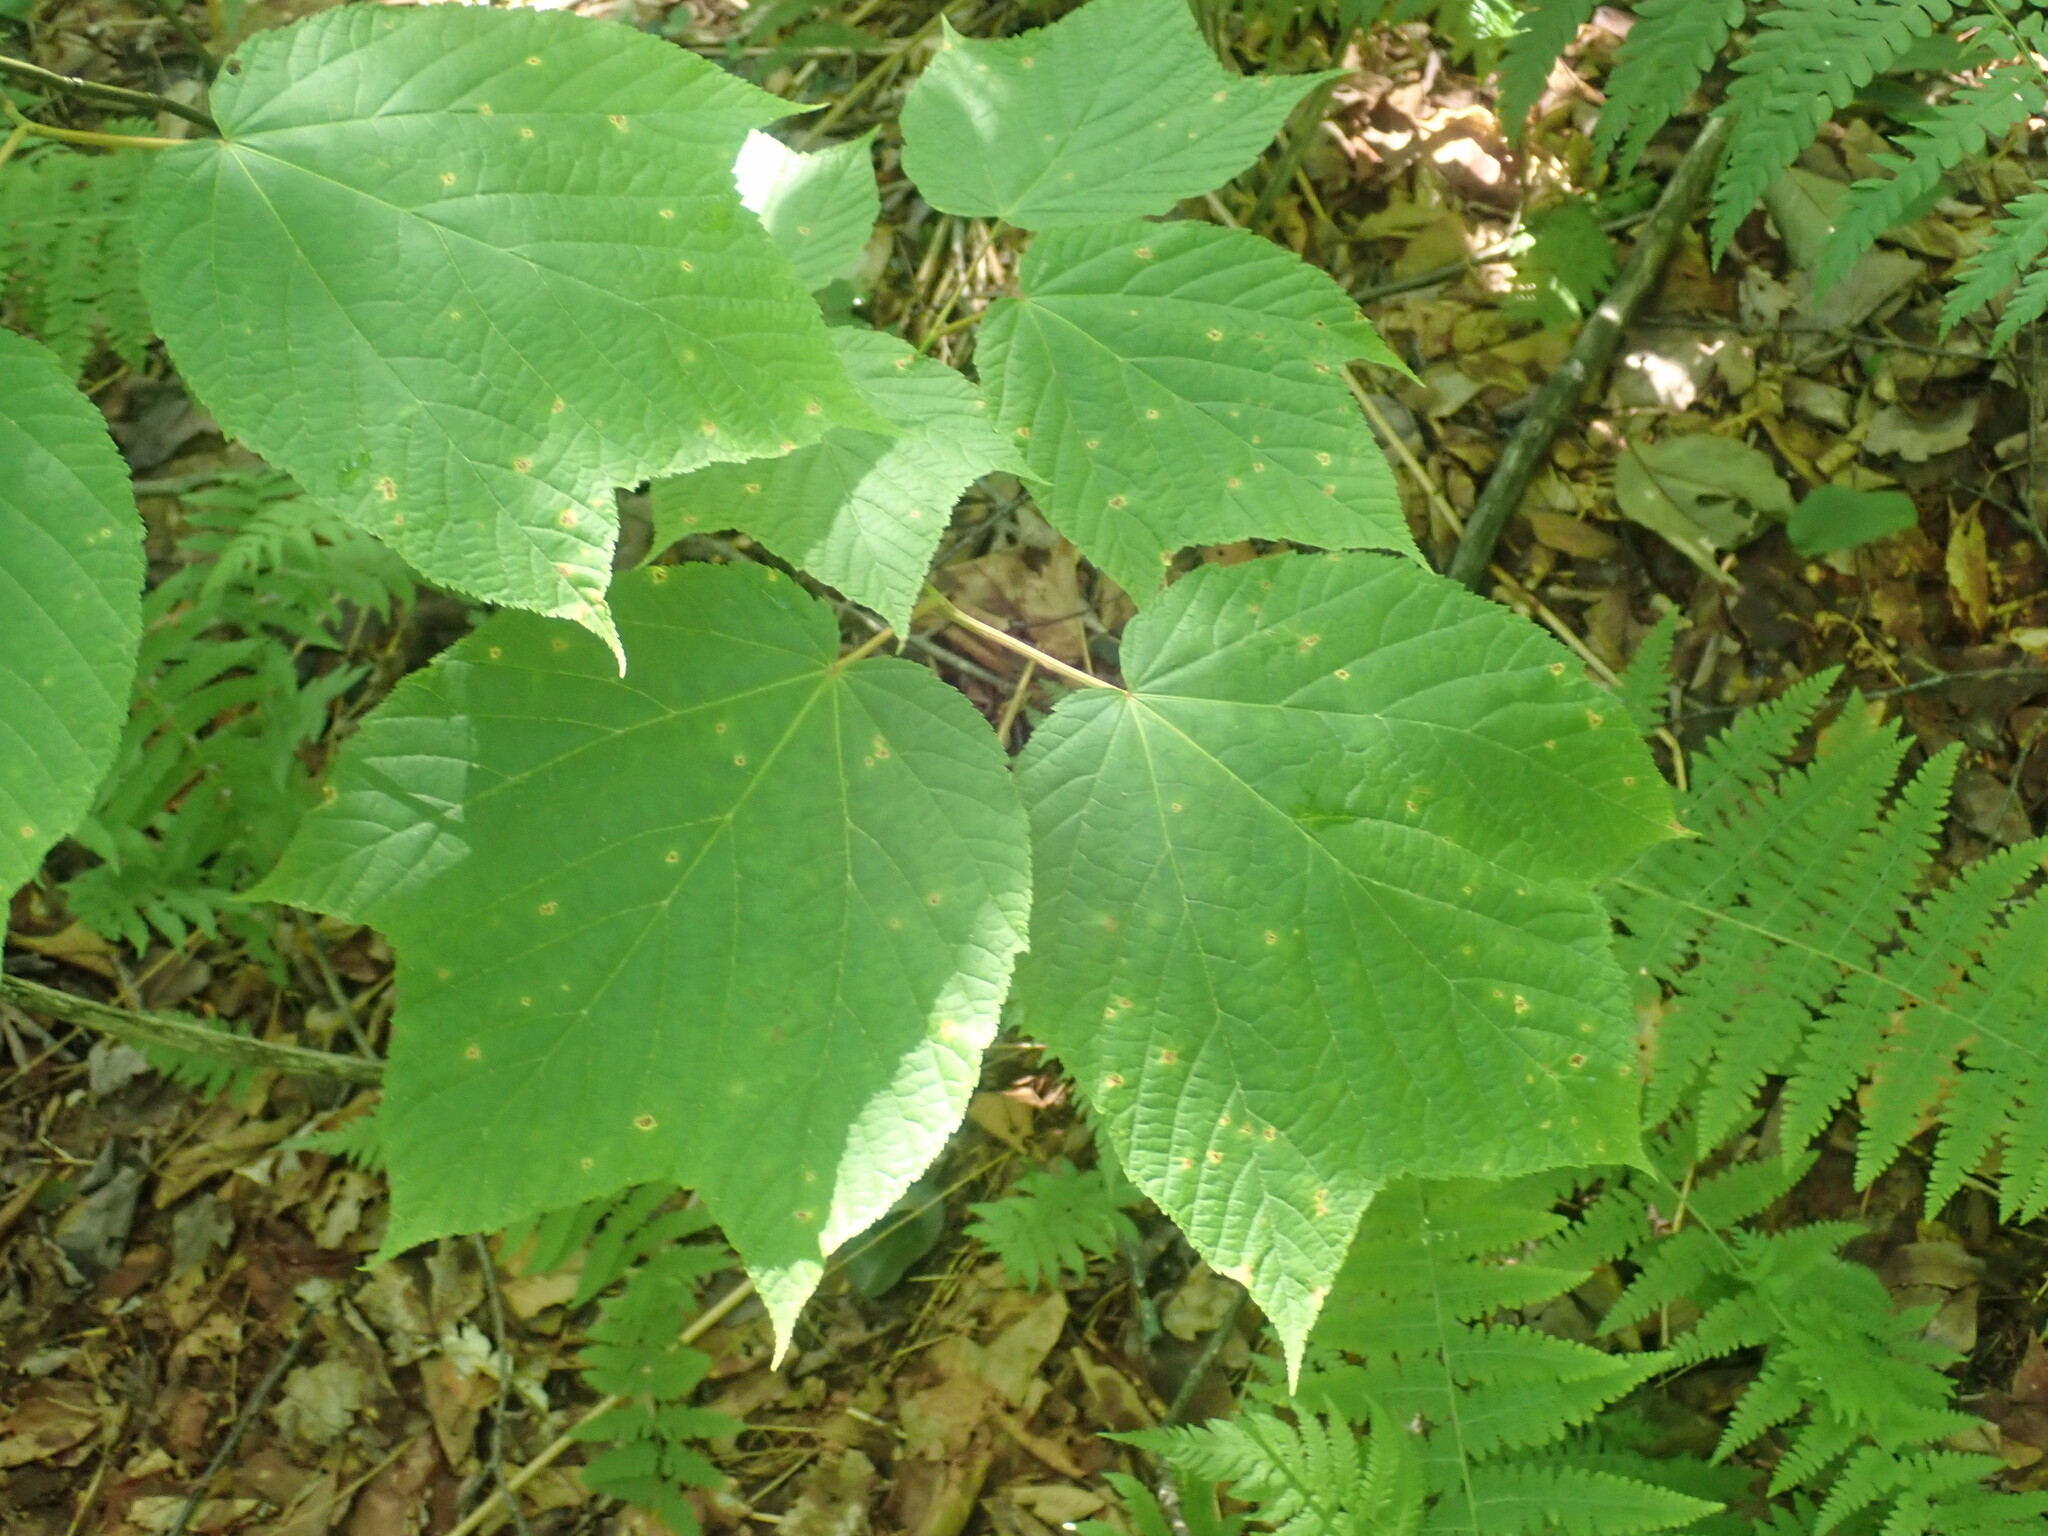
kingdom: Plantae
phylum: Tracheophyta
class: Magnoliopsida
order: Sapindales
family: Sapindaceae
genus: Acer
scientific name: Acer pensylvanicum
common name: Moosewood
